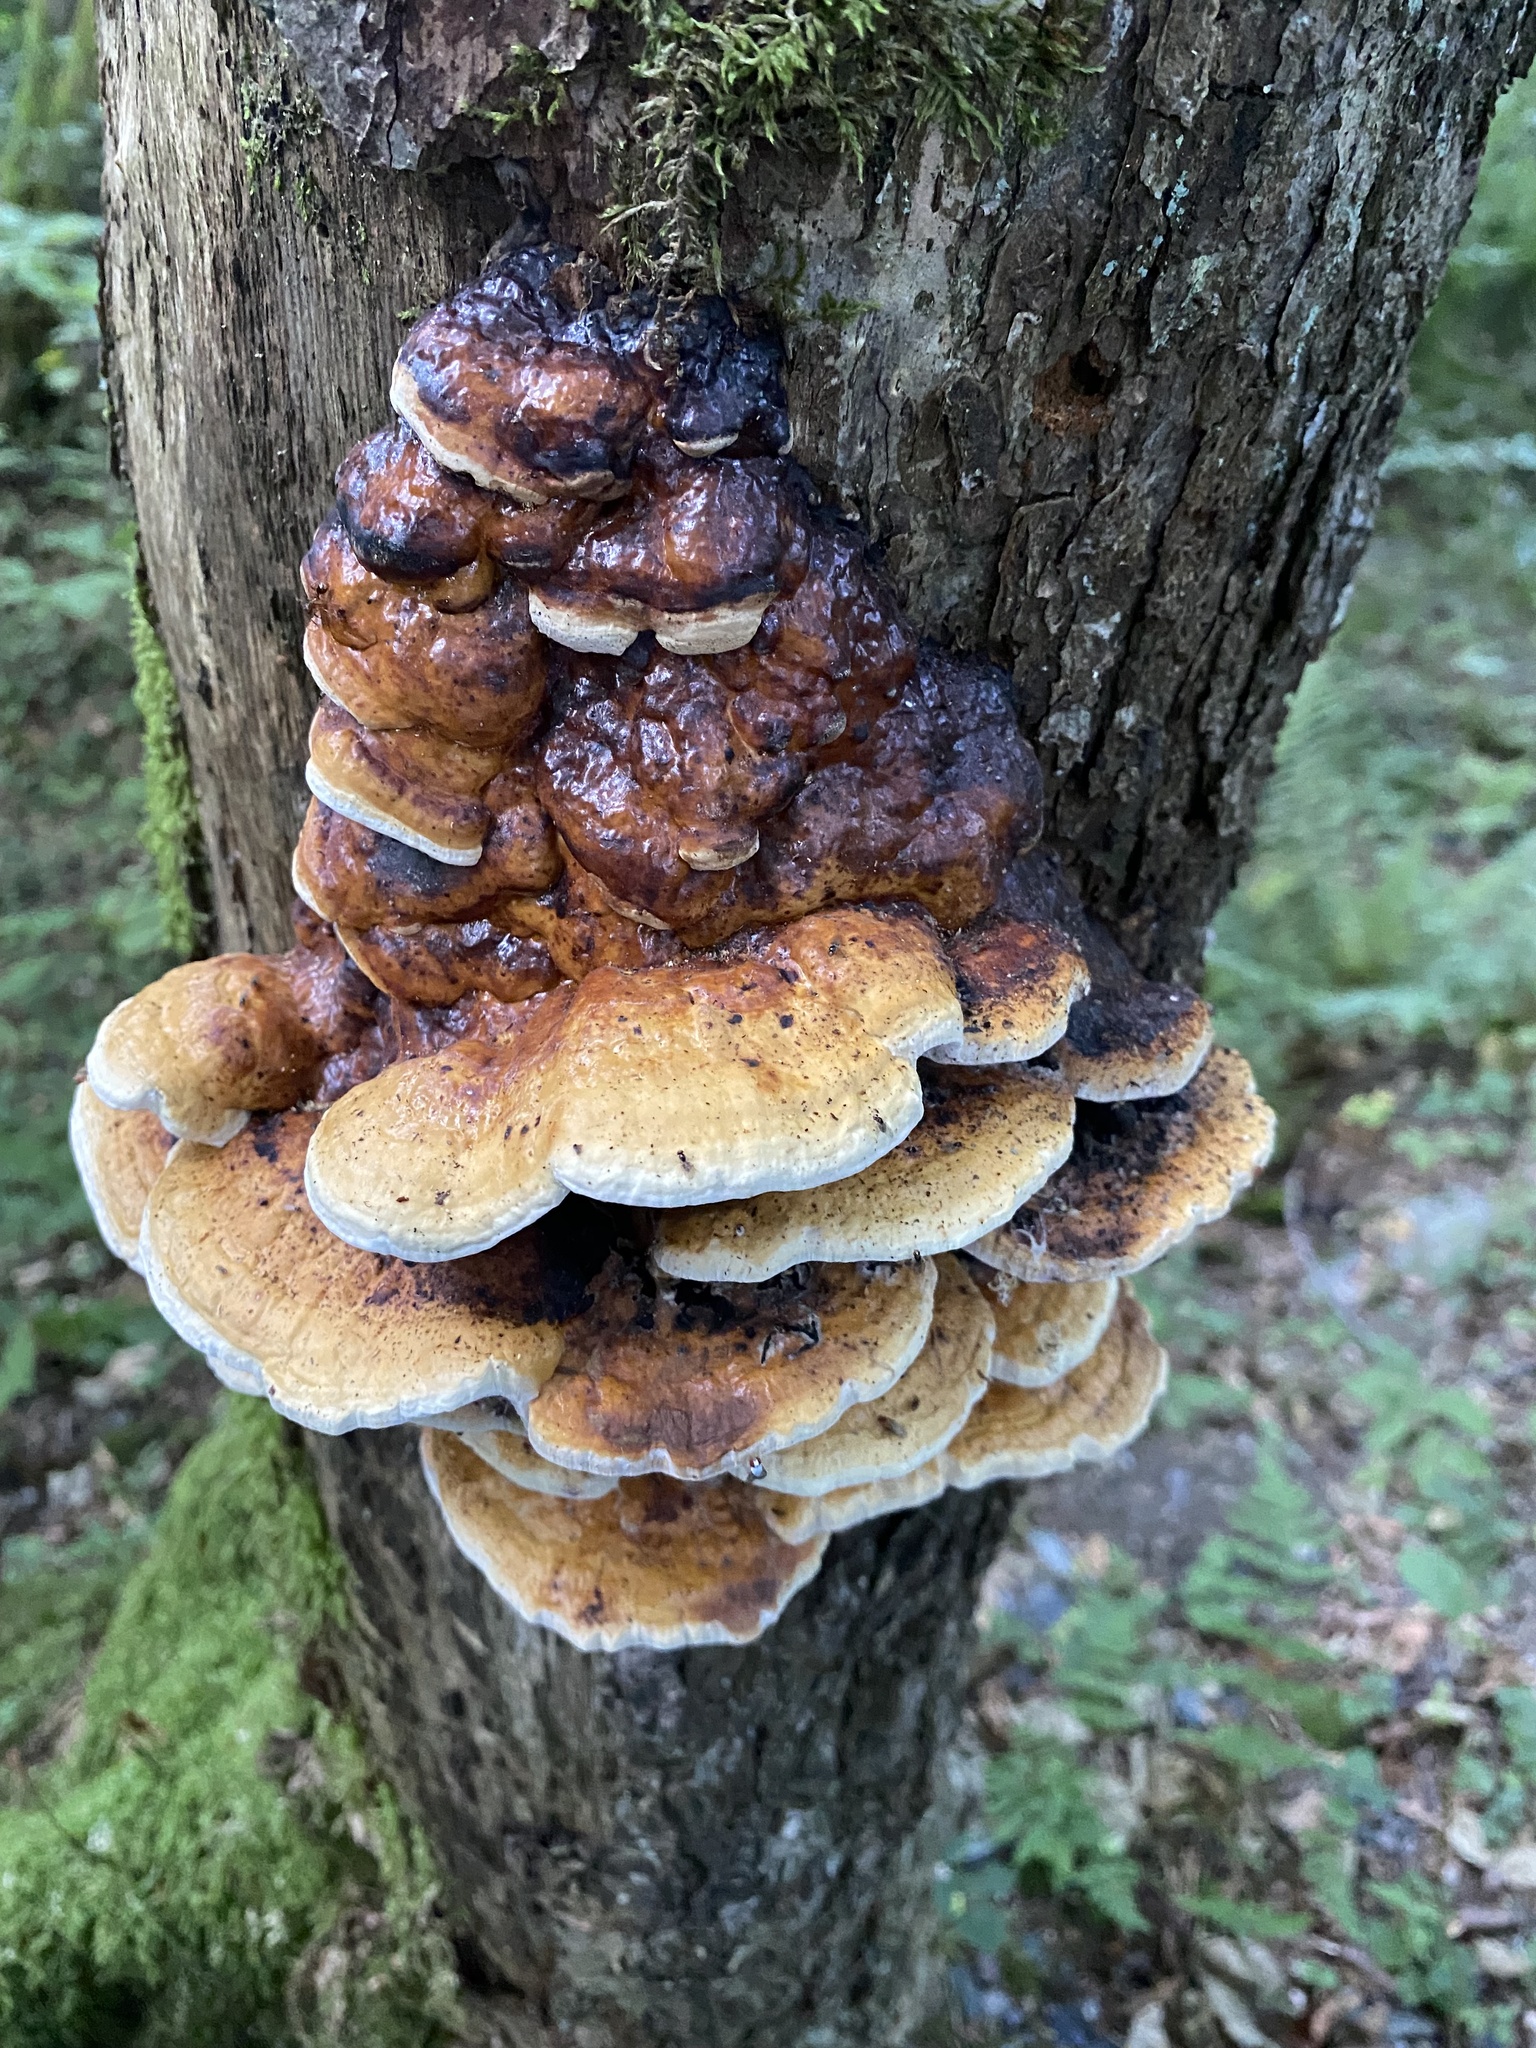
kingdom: Fungi
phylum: Basidiomycota
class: Agaricomycetes
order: Polyporales
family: Fomitopsidaceae
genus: Fomitopsis
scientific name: Fomitopsis pinicola
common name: Red-belted bracket
